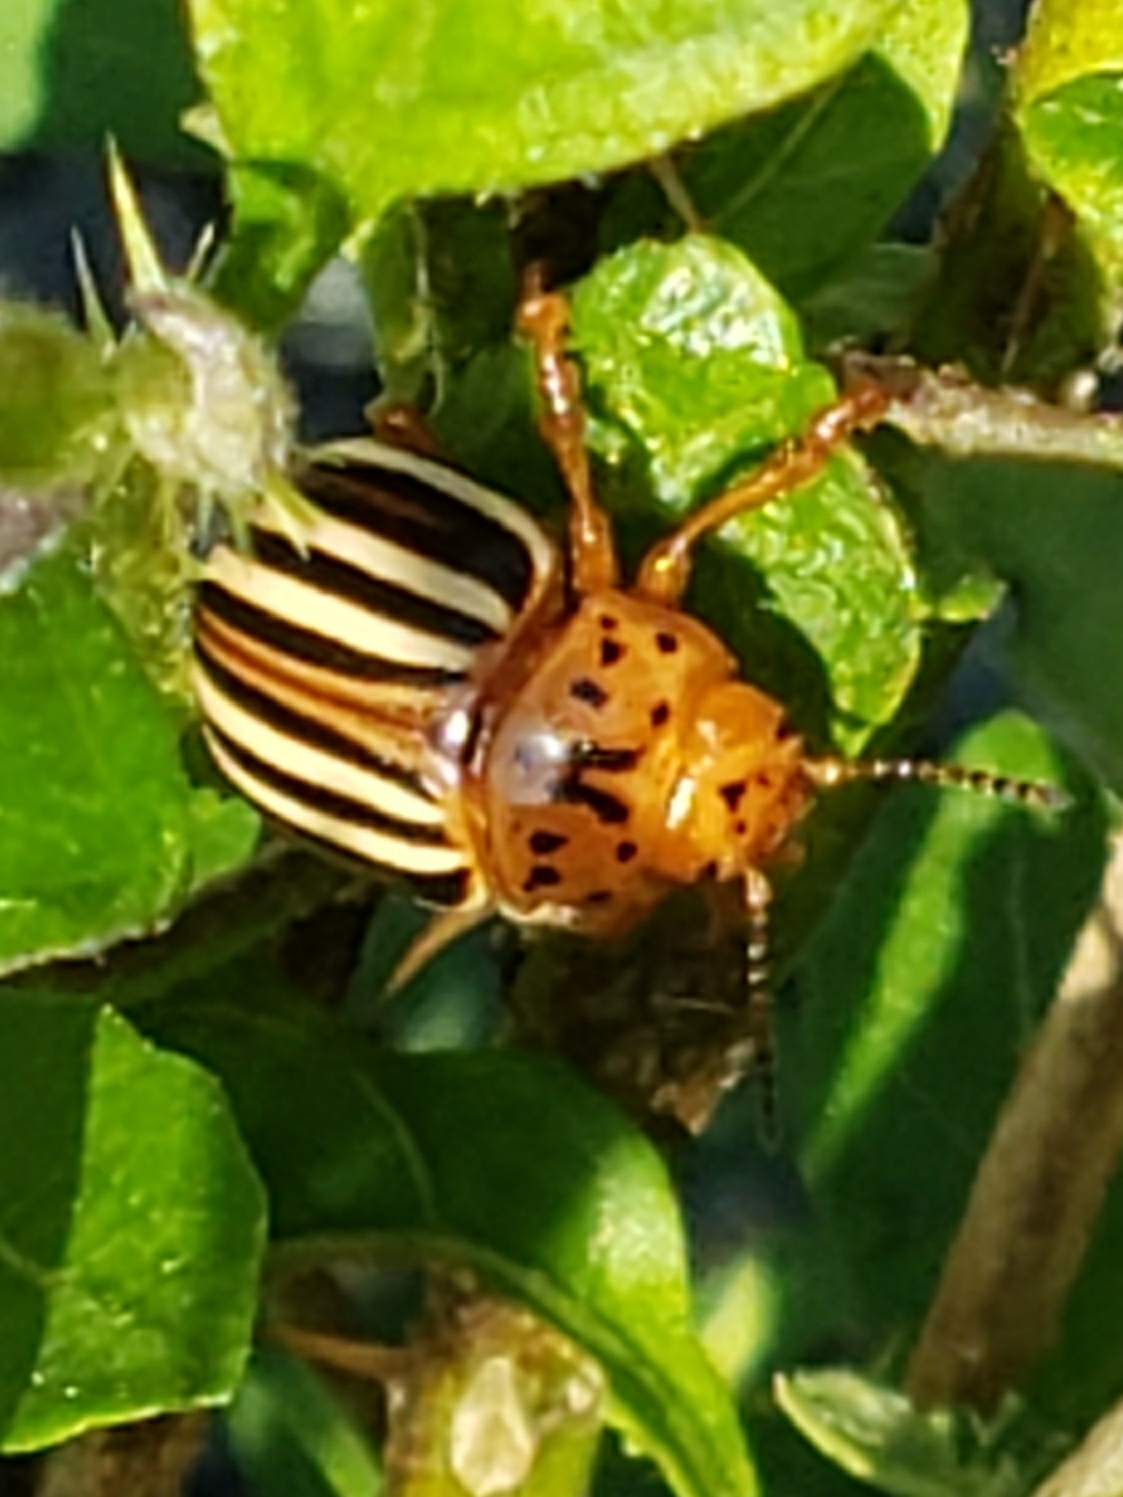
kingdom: Animalia
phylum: Arthropoda
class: Insecta
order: Coleoptera
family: Chrysomelidae
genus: Leptinotarsa
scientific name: Leptinotarsa juncta
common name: False potato beetle
